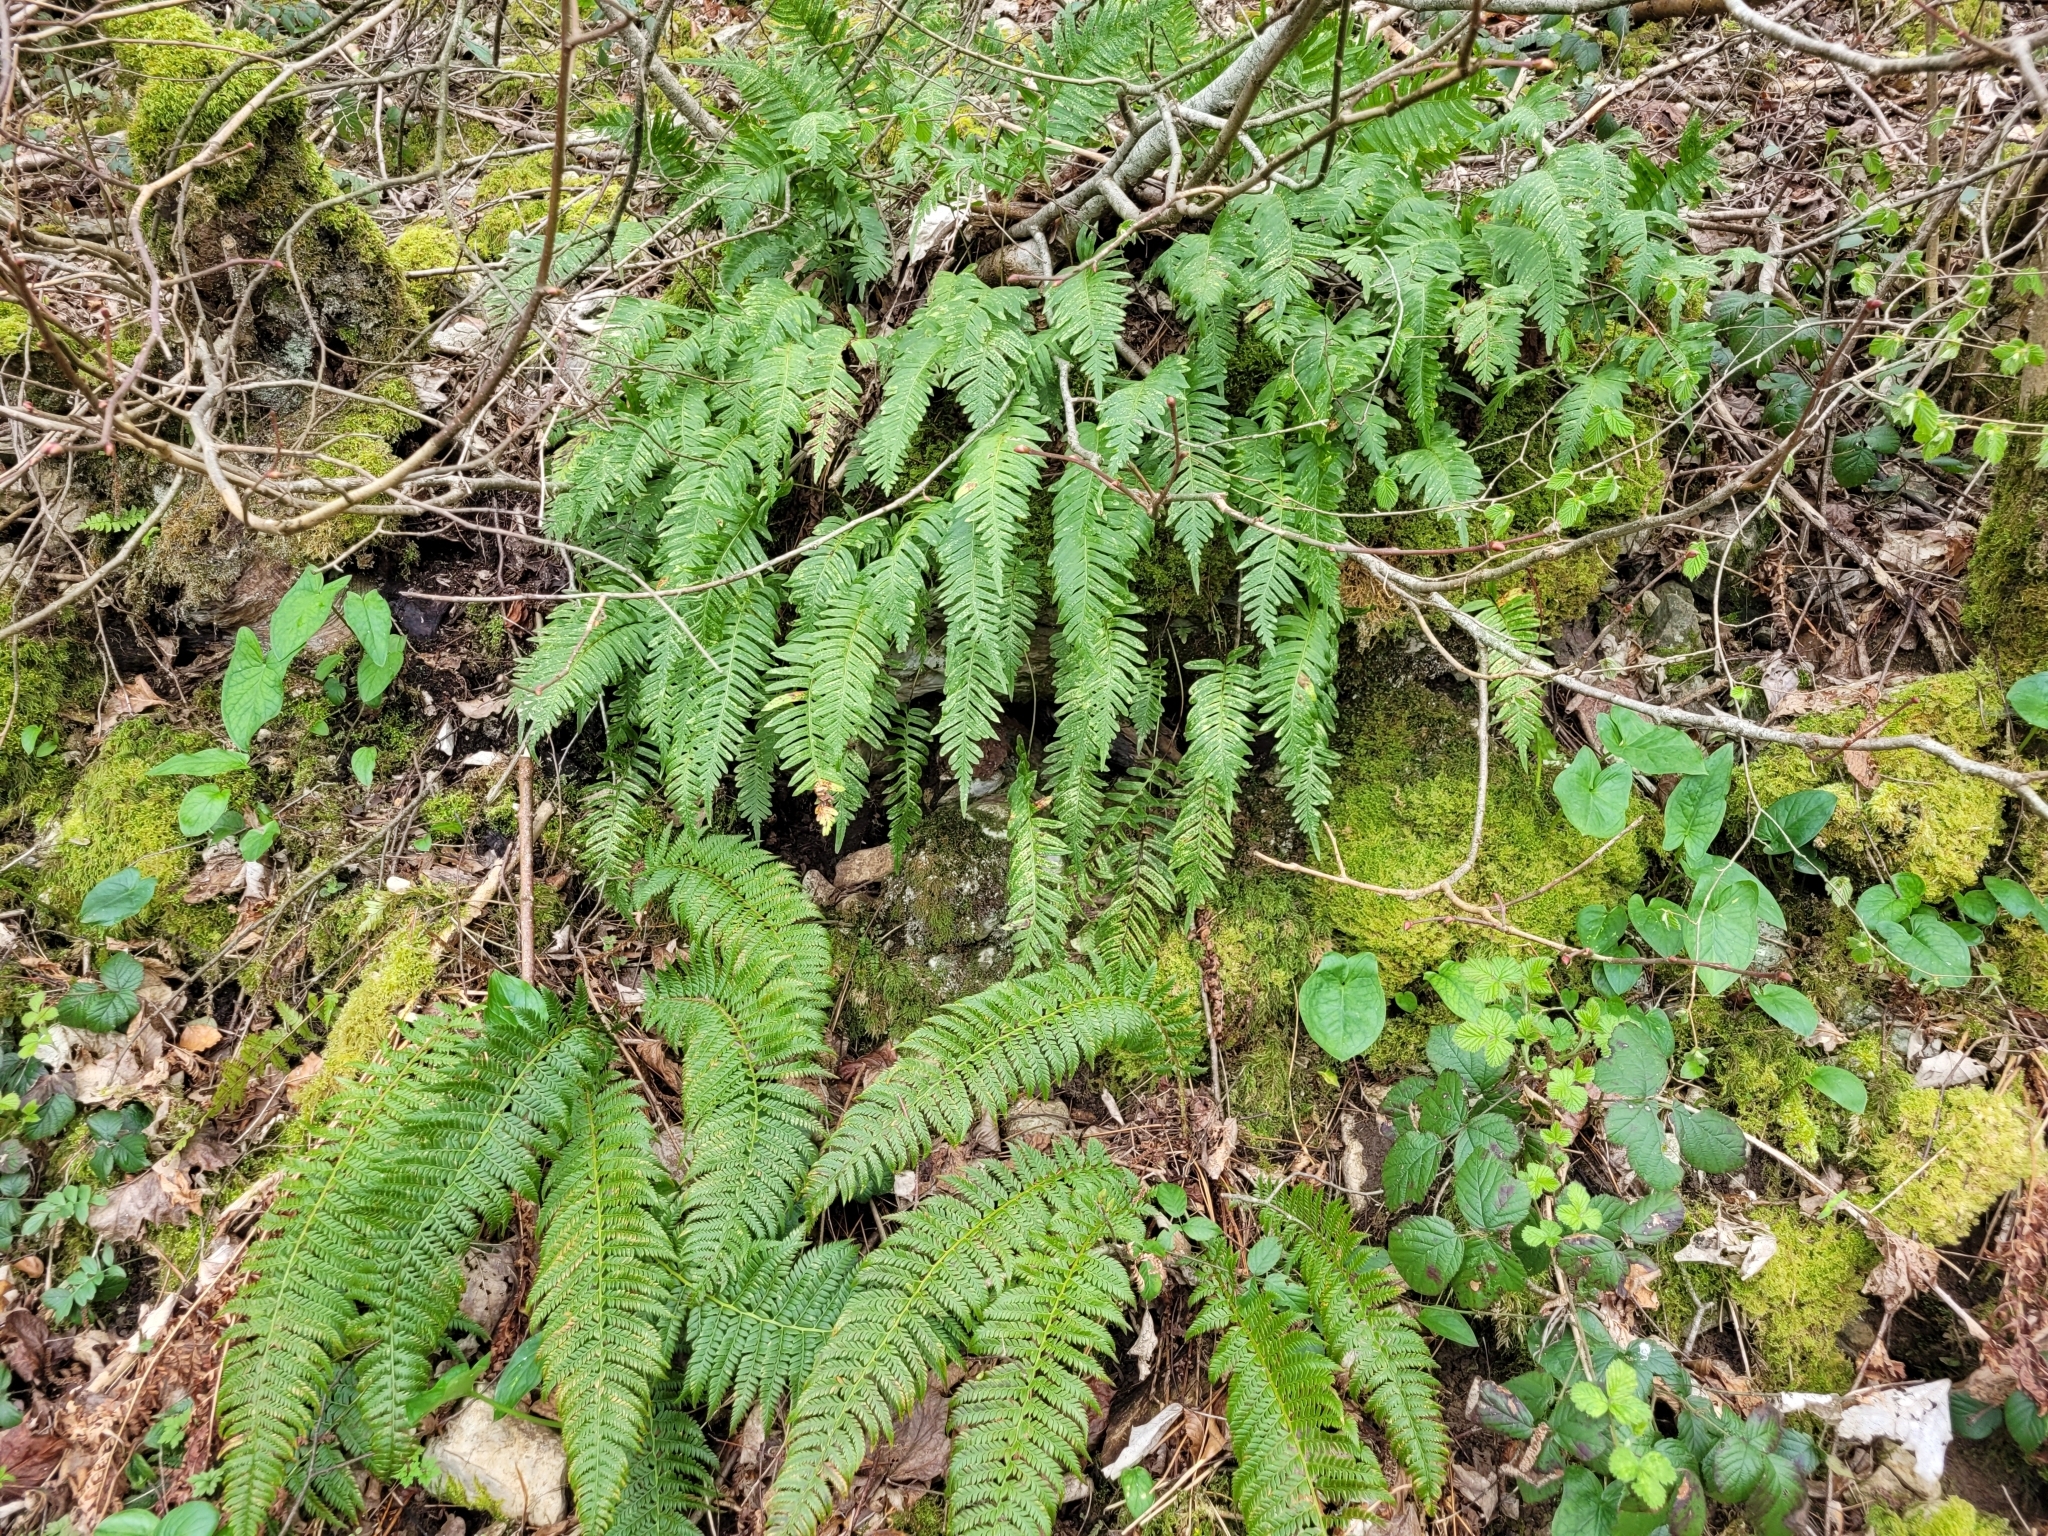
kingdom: Plantae
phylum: Tracheophyta
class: Polypodiopsida
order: Polypodiales
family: Dryopteridaceae
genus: Polystichum
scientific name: Polystichum aculeatum
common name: Hard shield-fern
